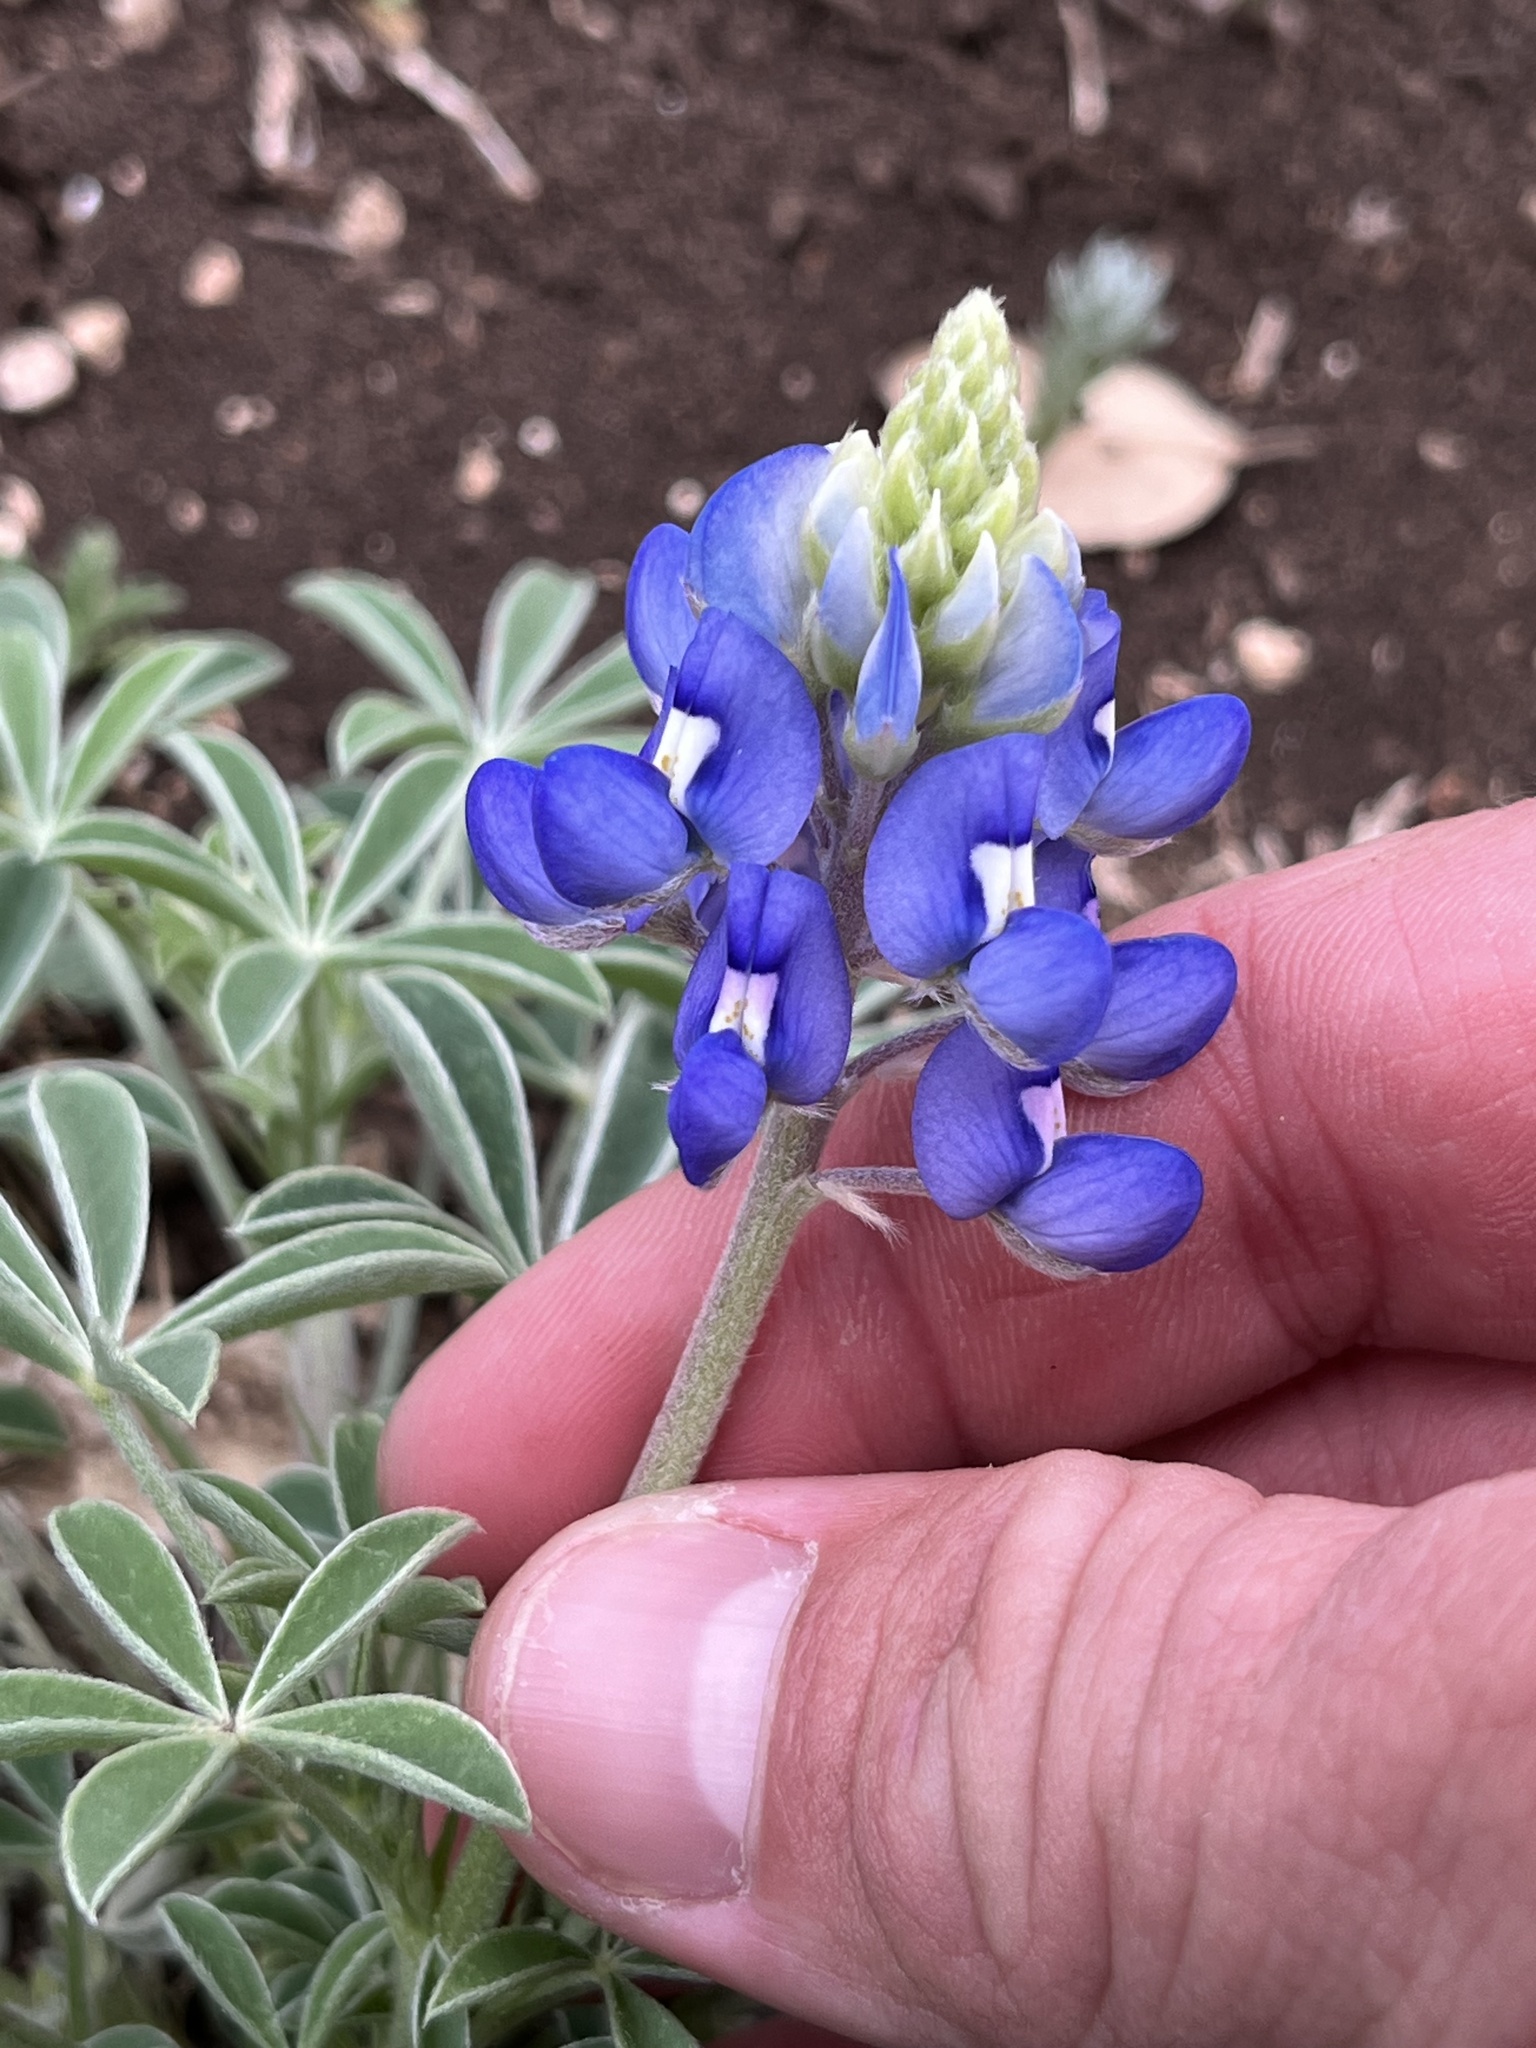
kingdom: Plantae
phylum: Tracheophyta
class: Magnoliopsida
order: Fabales
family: Fabaceae
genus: Lupinus
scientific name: Lupinus texensis
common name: Texas bluebonnet
